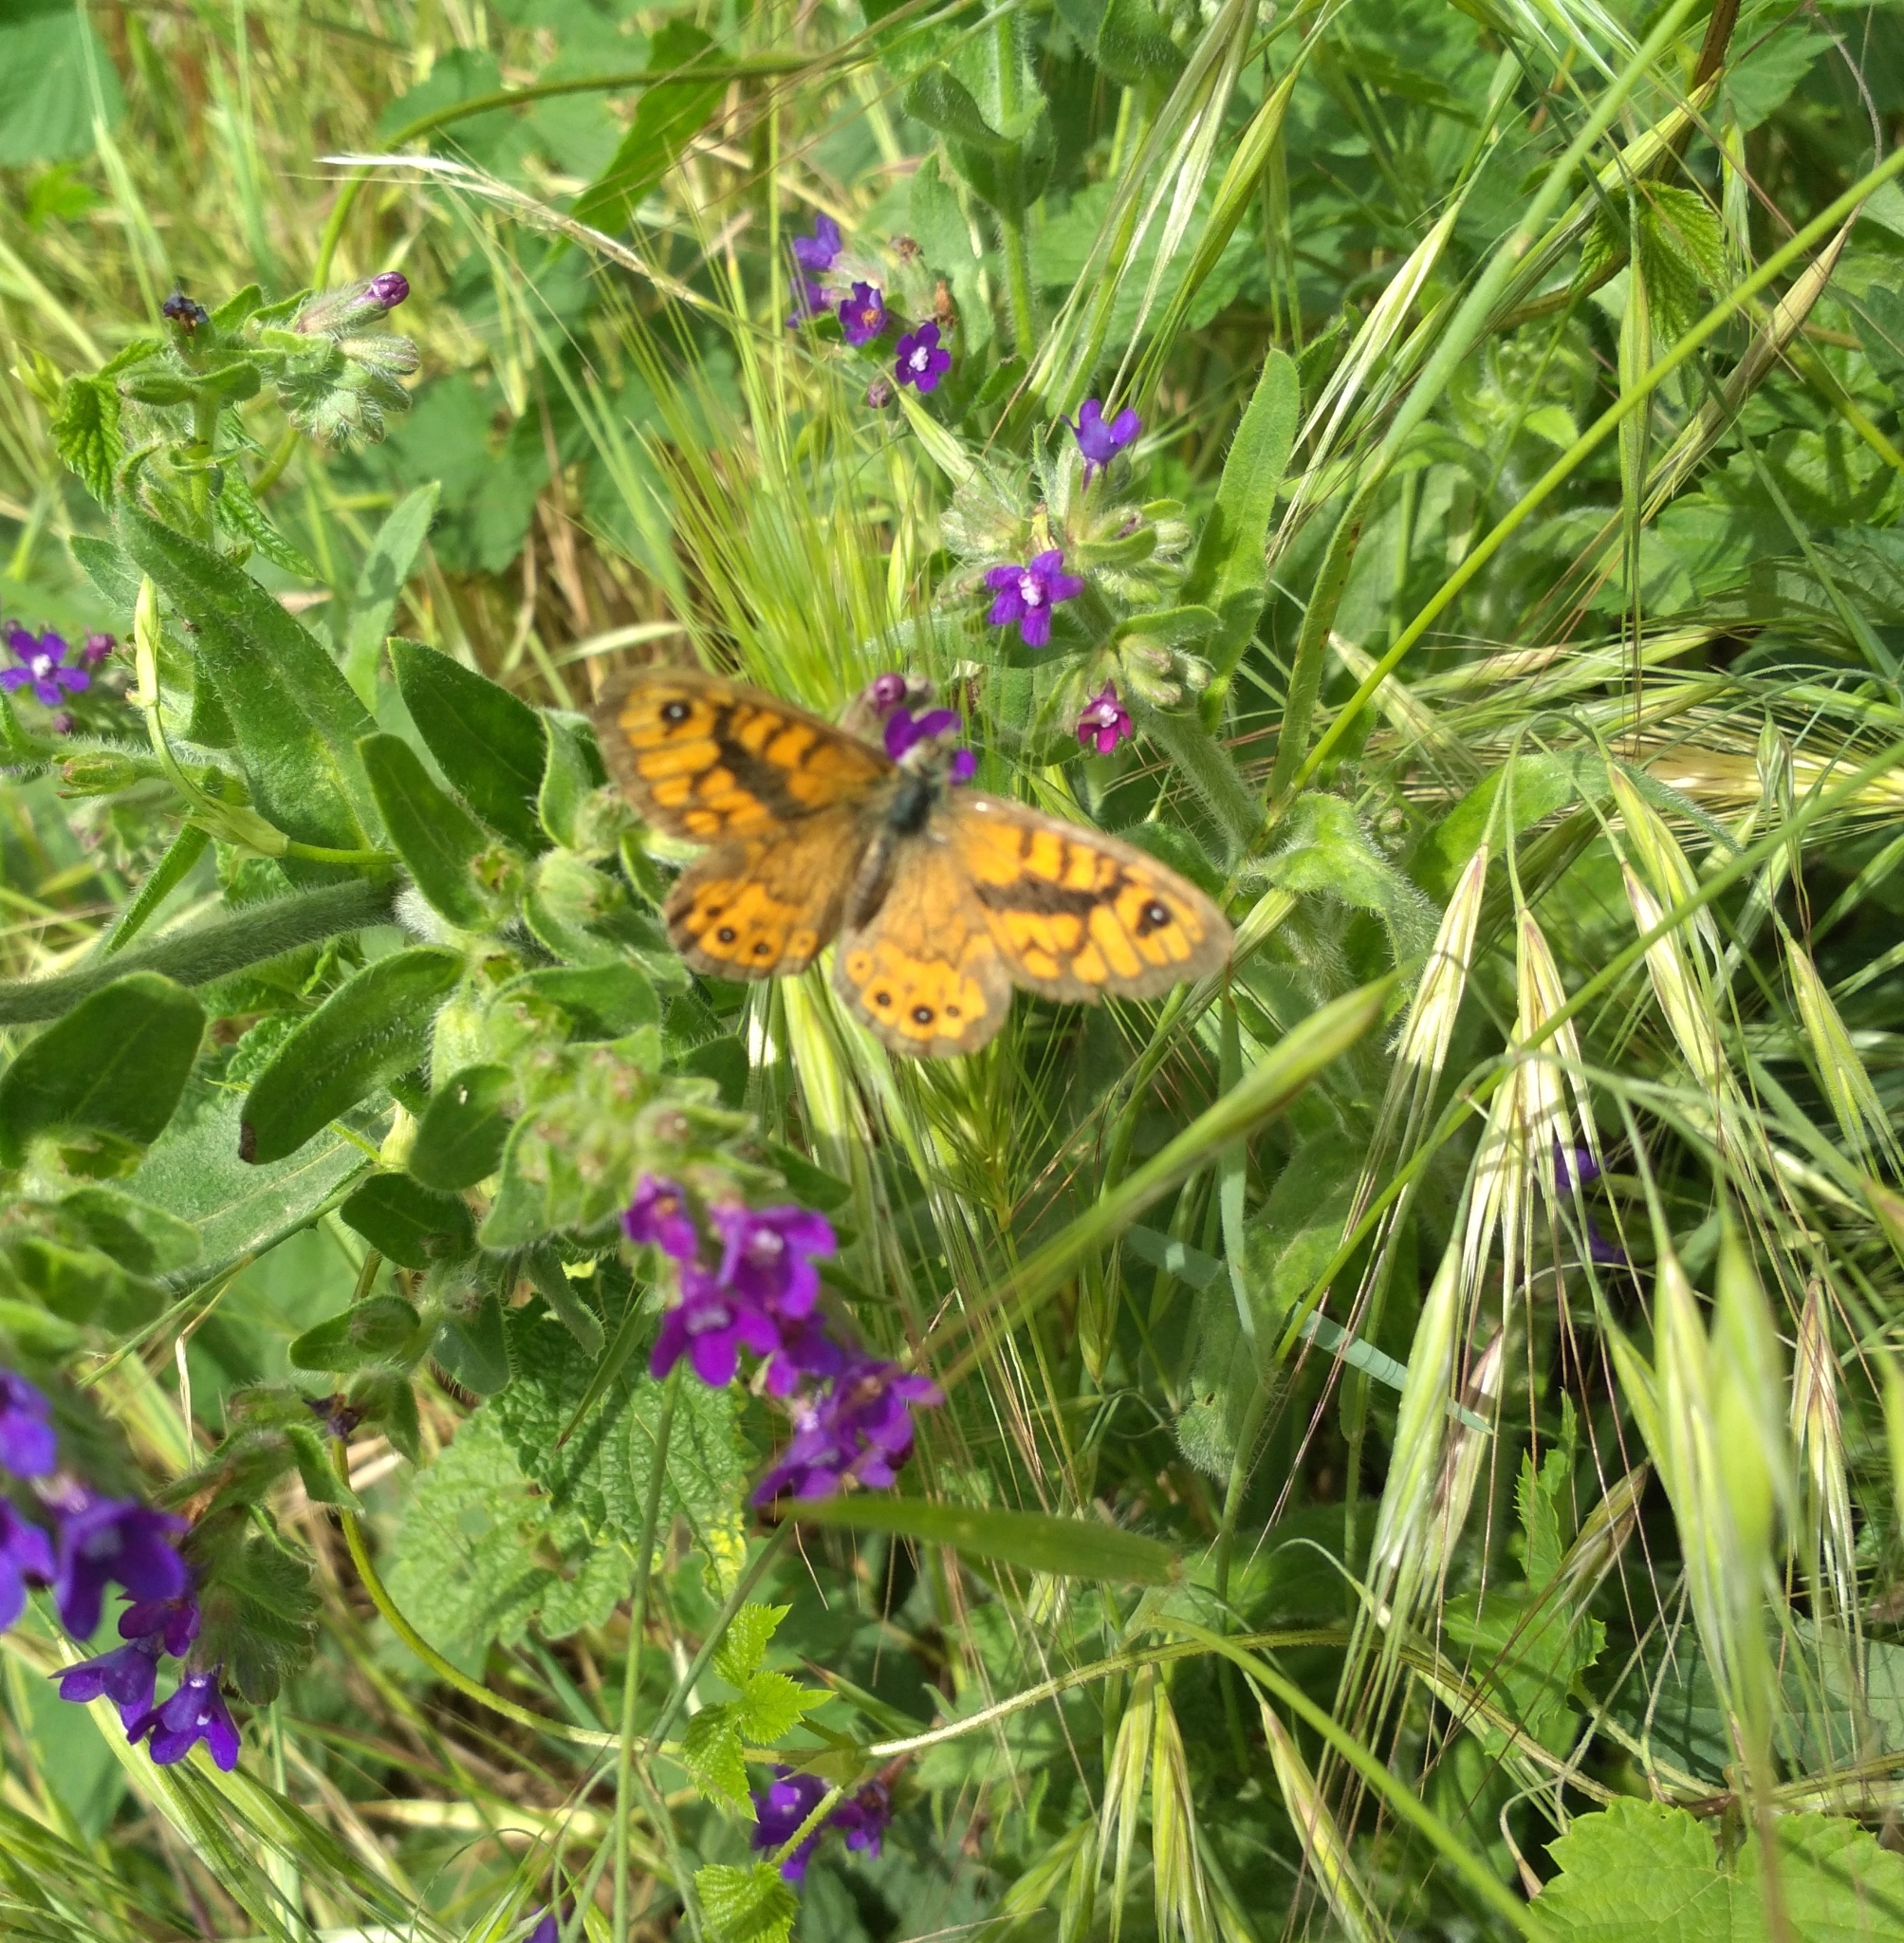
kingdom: Animalia
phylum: Arthropoda
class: Insecta
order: Lepidoptera
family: Nymphalidae
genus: Pararge
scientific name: Pararge Lasiommata megera
